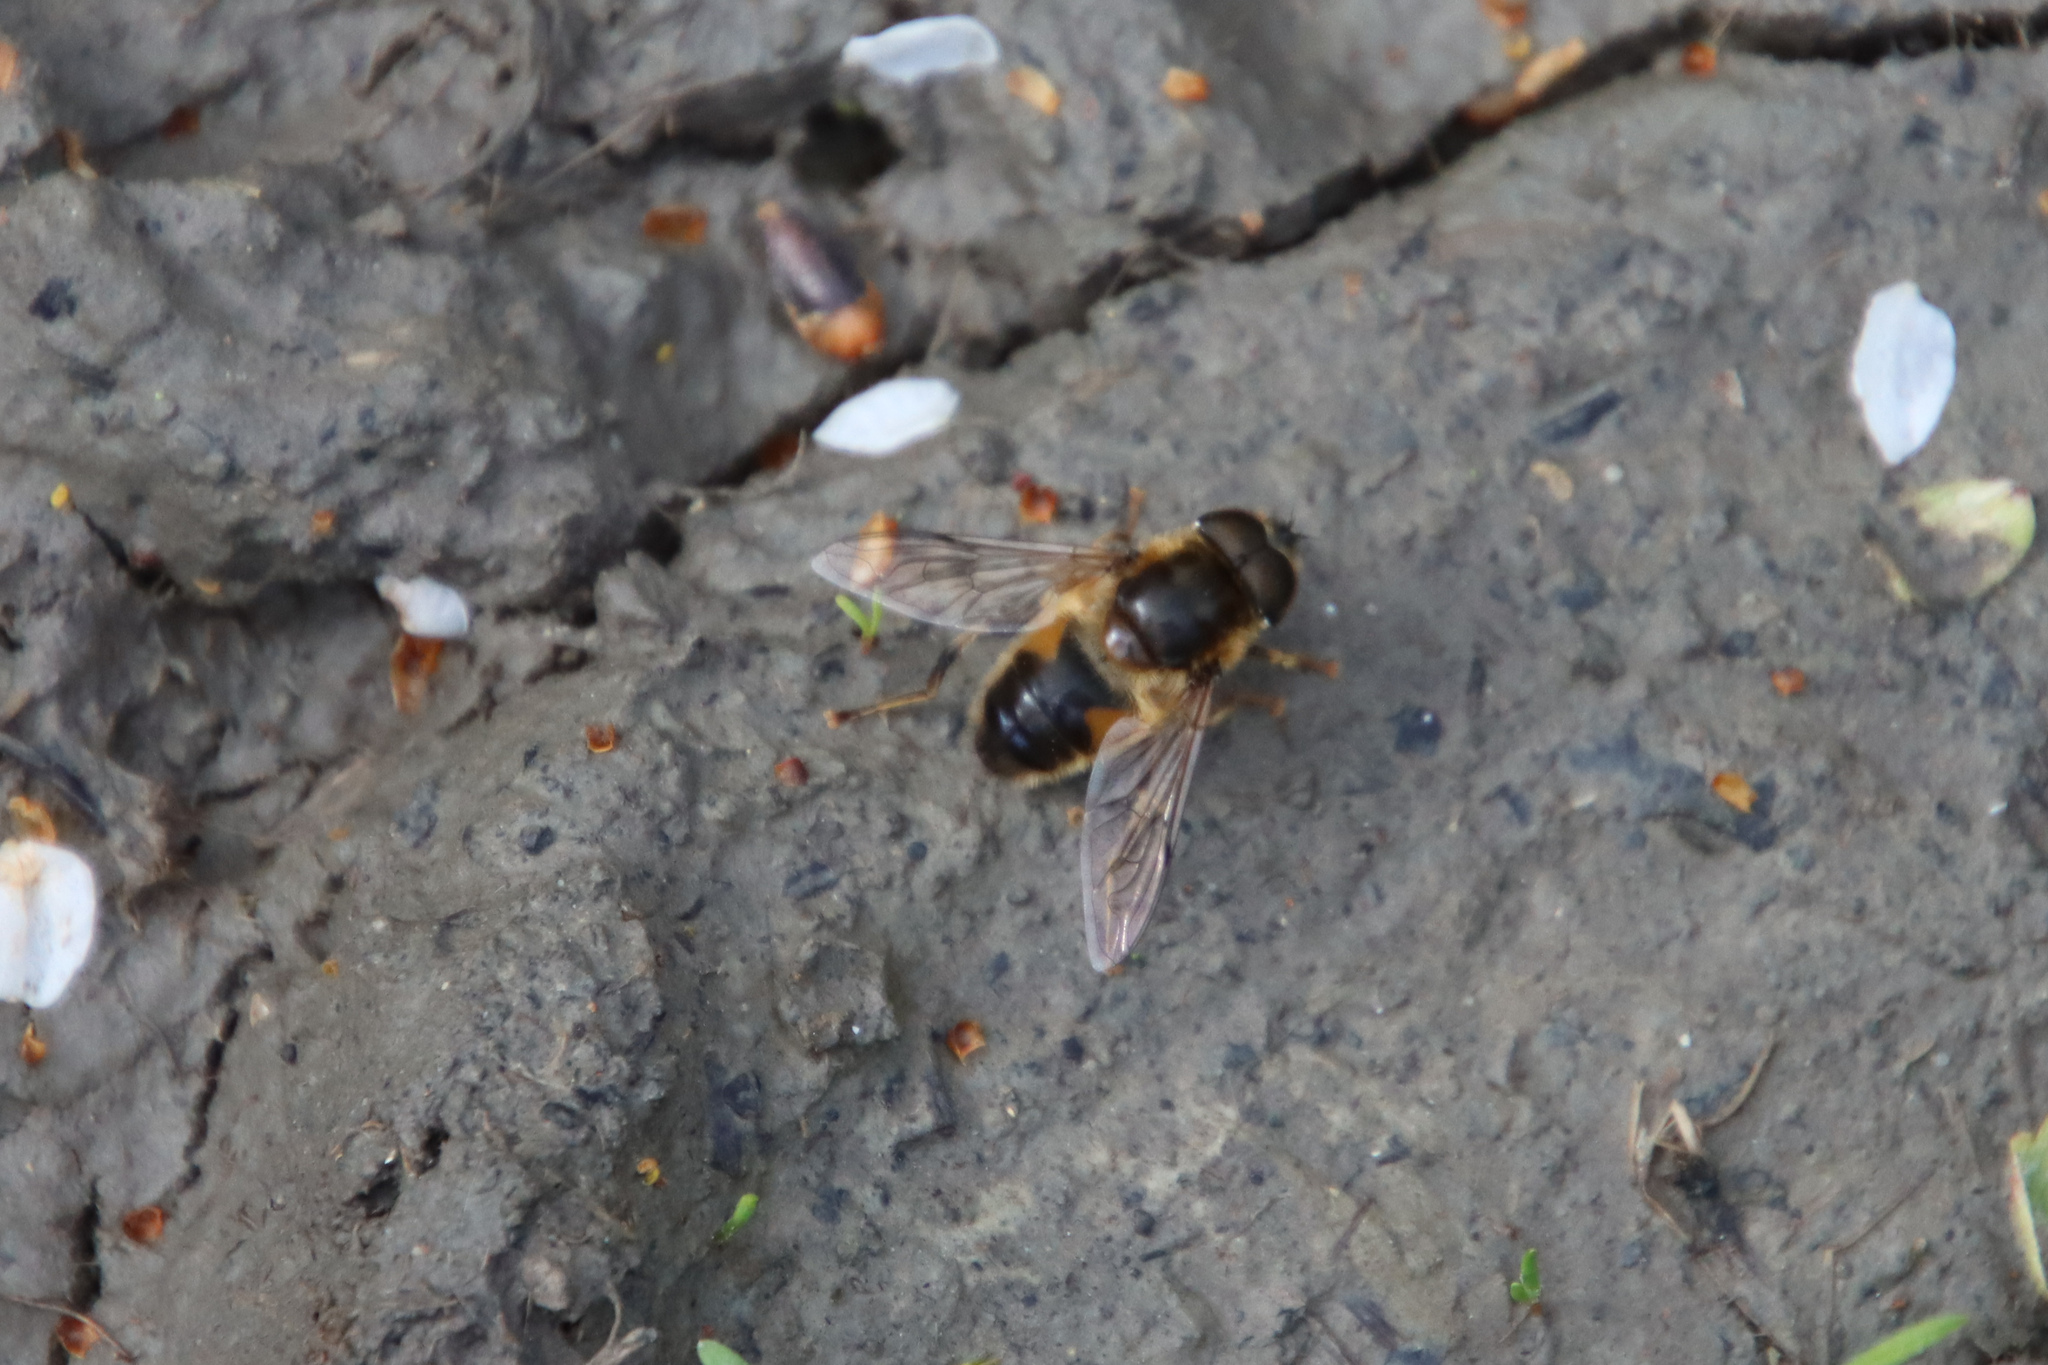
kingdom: Animalia
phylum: Arthropoda
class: Insecta
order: Diptera
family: Syrphidae
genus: Eristalis
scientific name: Eristalis pertinax
